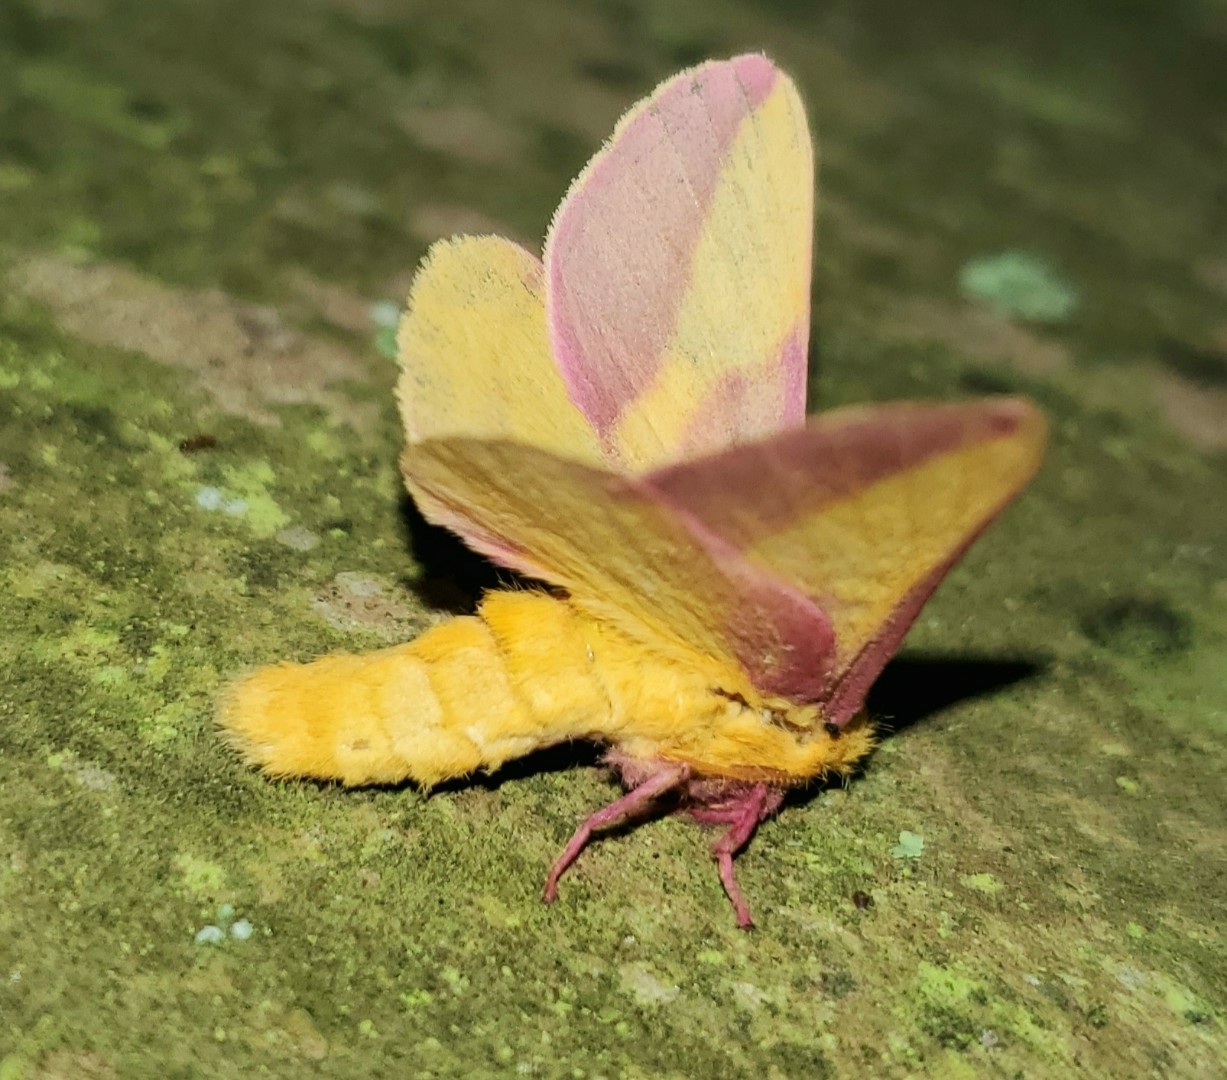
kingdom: Animalia
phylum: Arthropoda
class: Insecta
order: Lepidoptera
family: Saturniidae
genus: Dryocampa
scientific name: Dryocampa rubicunda
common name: Rosy maple moth
